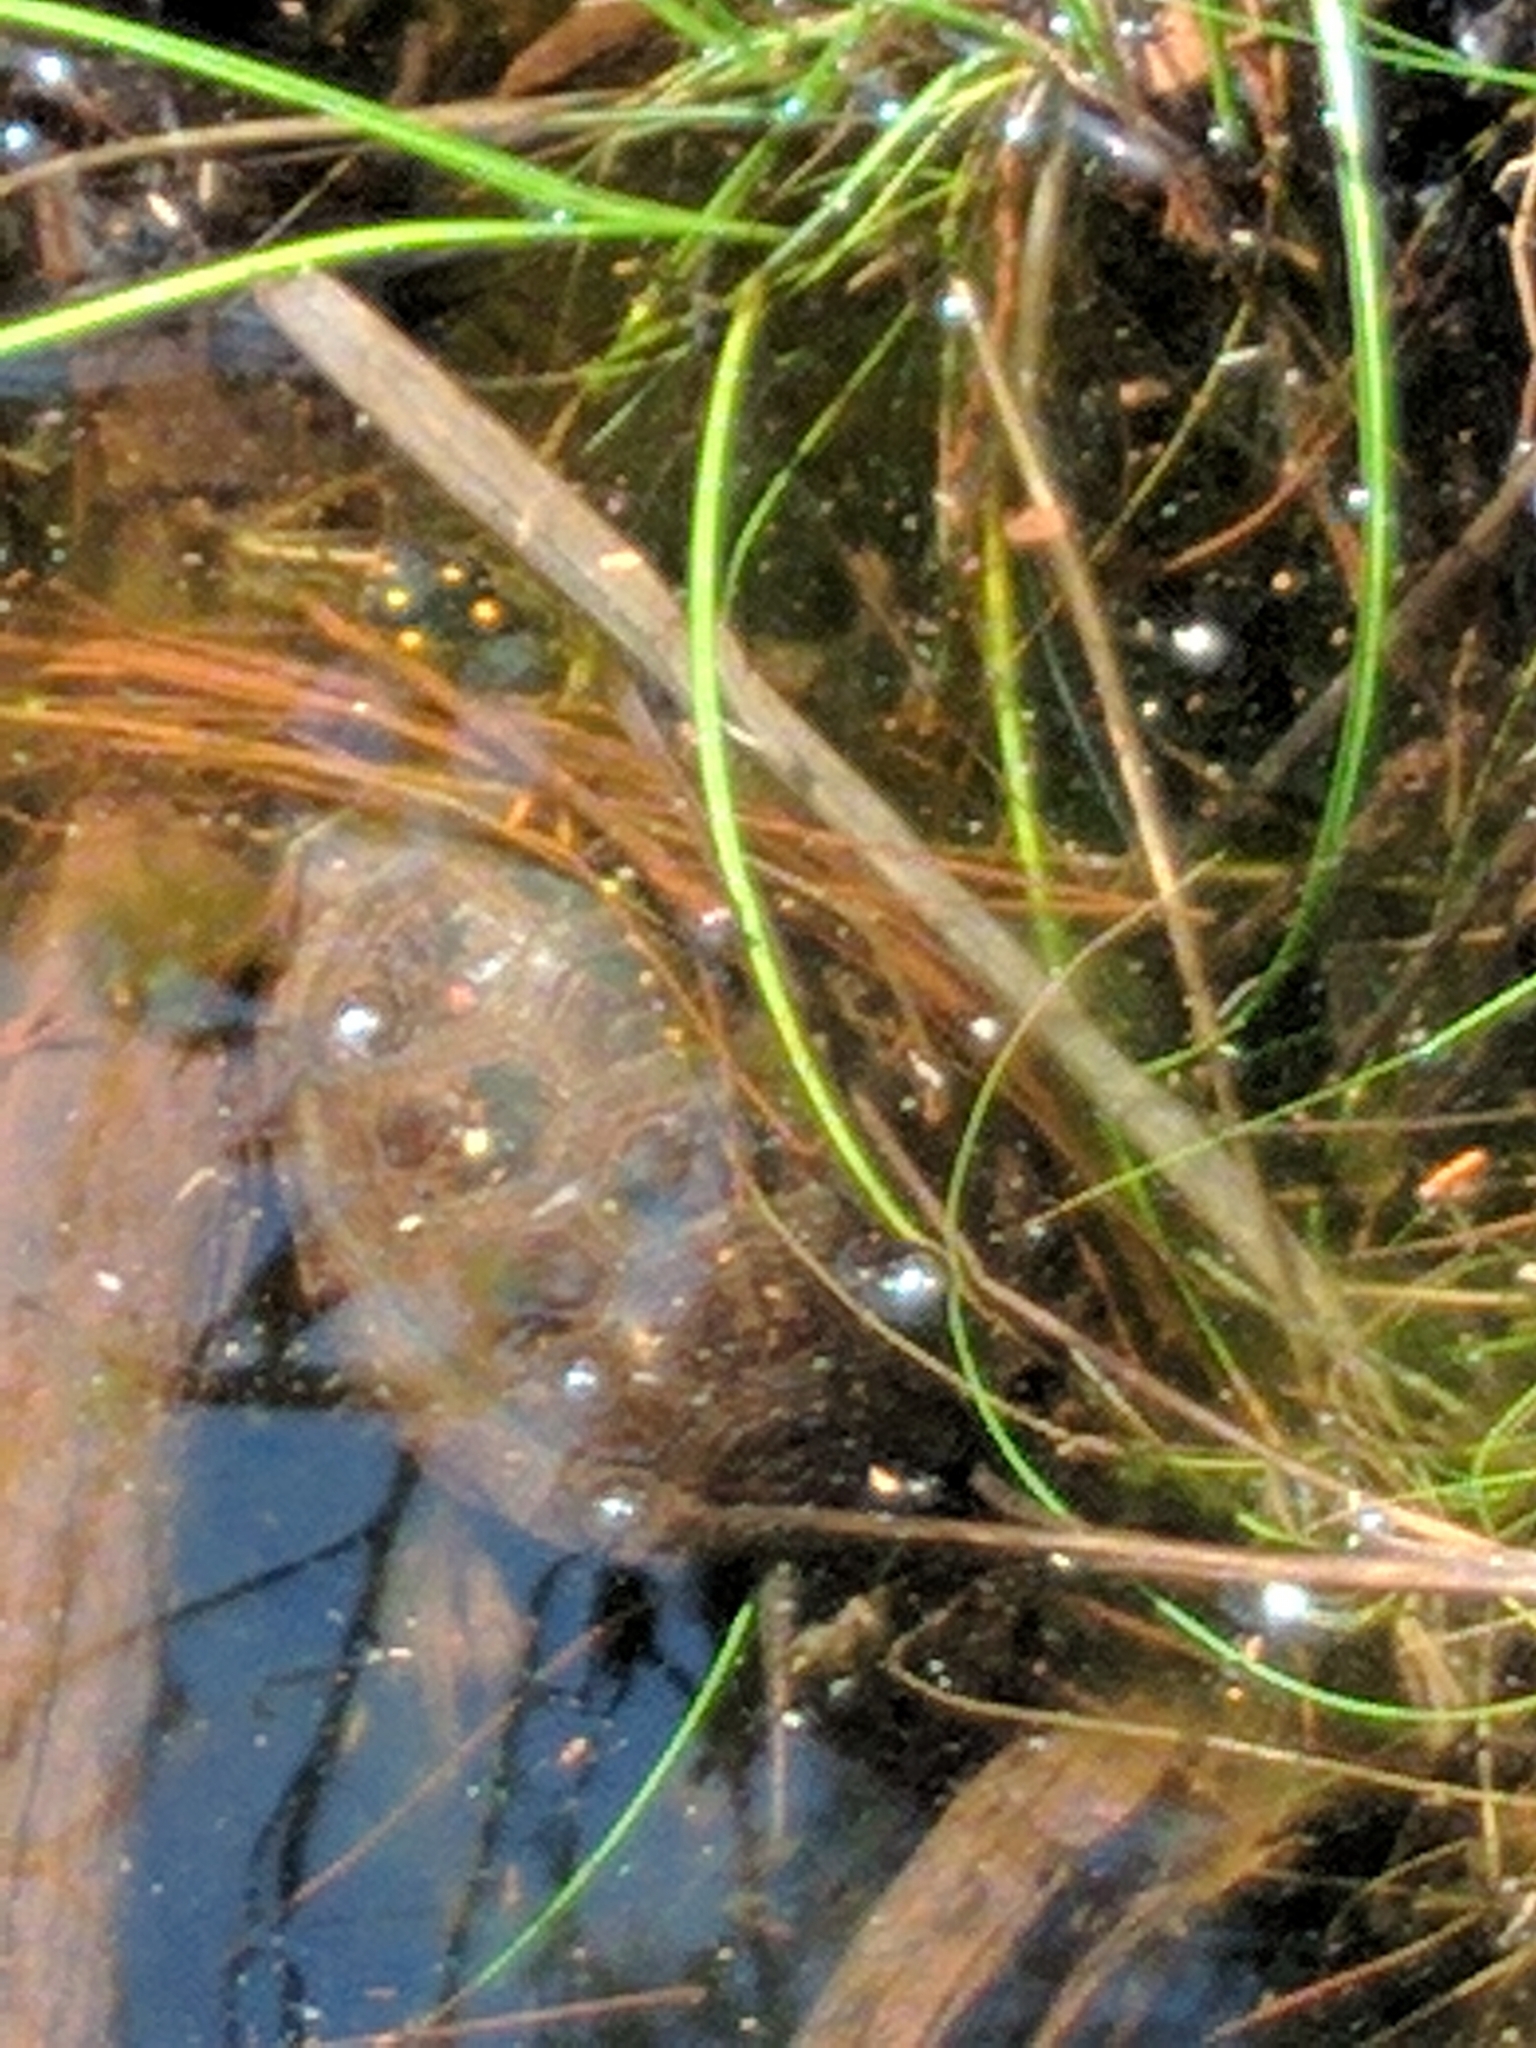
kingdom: Animalia
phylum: Chordata
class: Testudines
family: Emydidae
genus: Clemmys
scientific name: Clemmys guttata
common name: Spotted turtle
